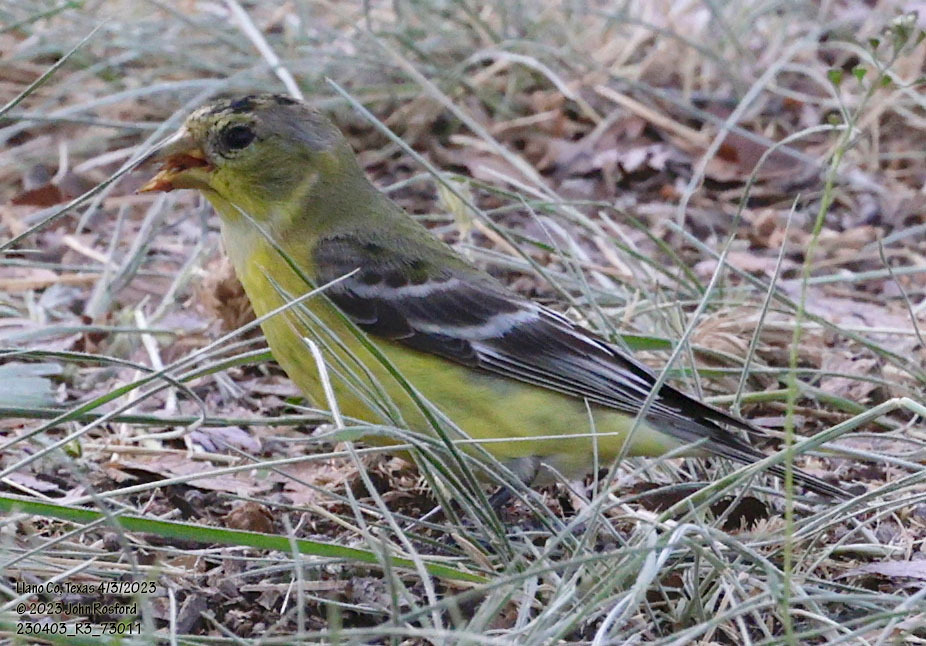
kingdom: Animalia
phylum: Chordata
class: Aves
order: Passeriformes
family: Fringillidae
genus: Spinus
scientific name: Spinus psaltria
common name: Lesser goldfinch
